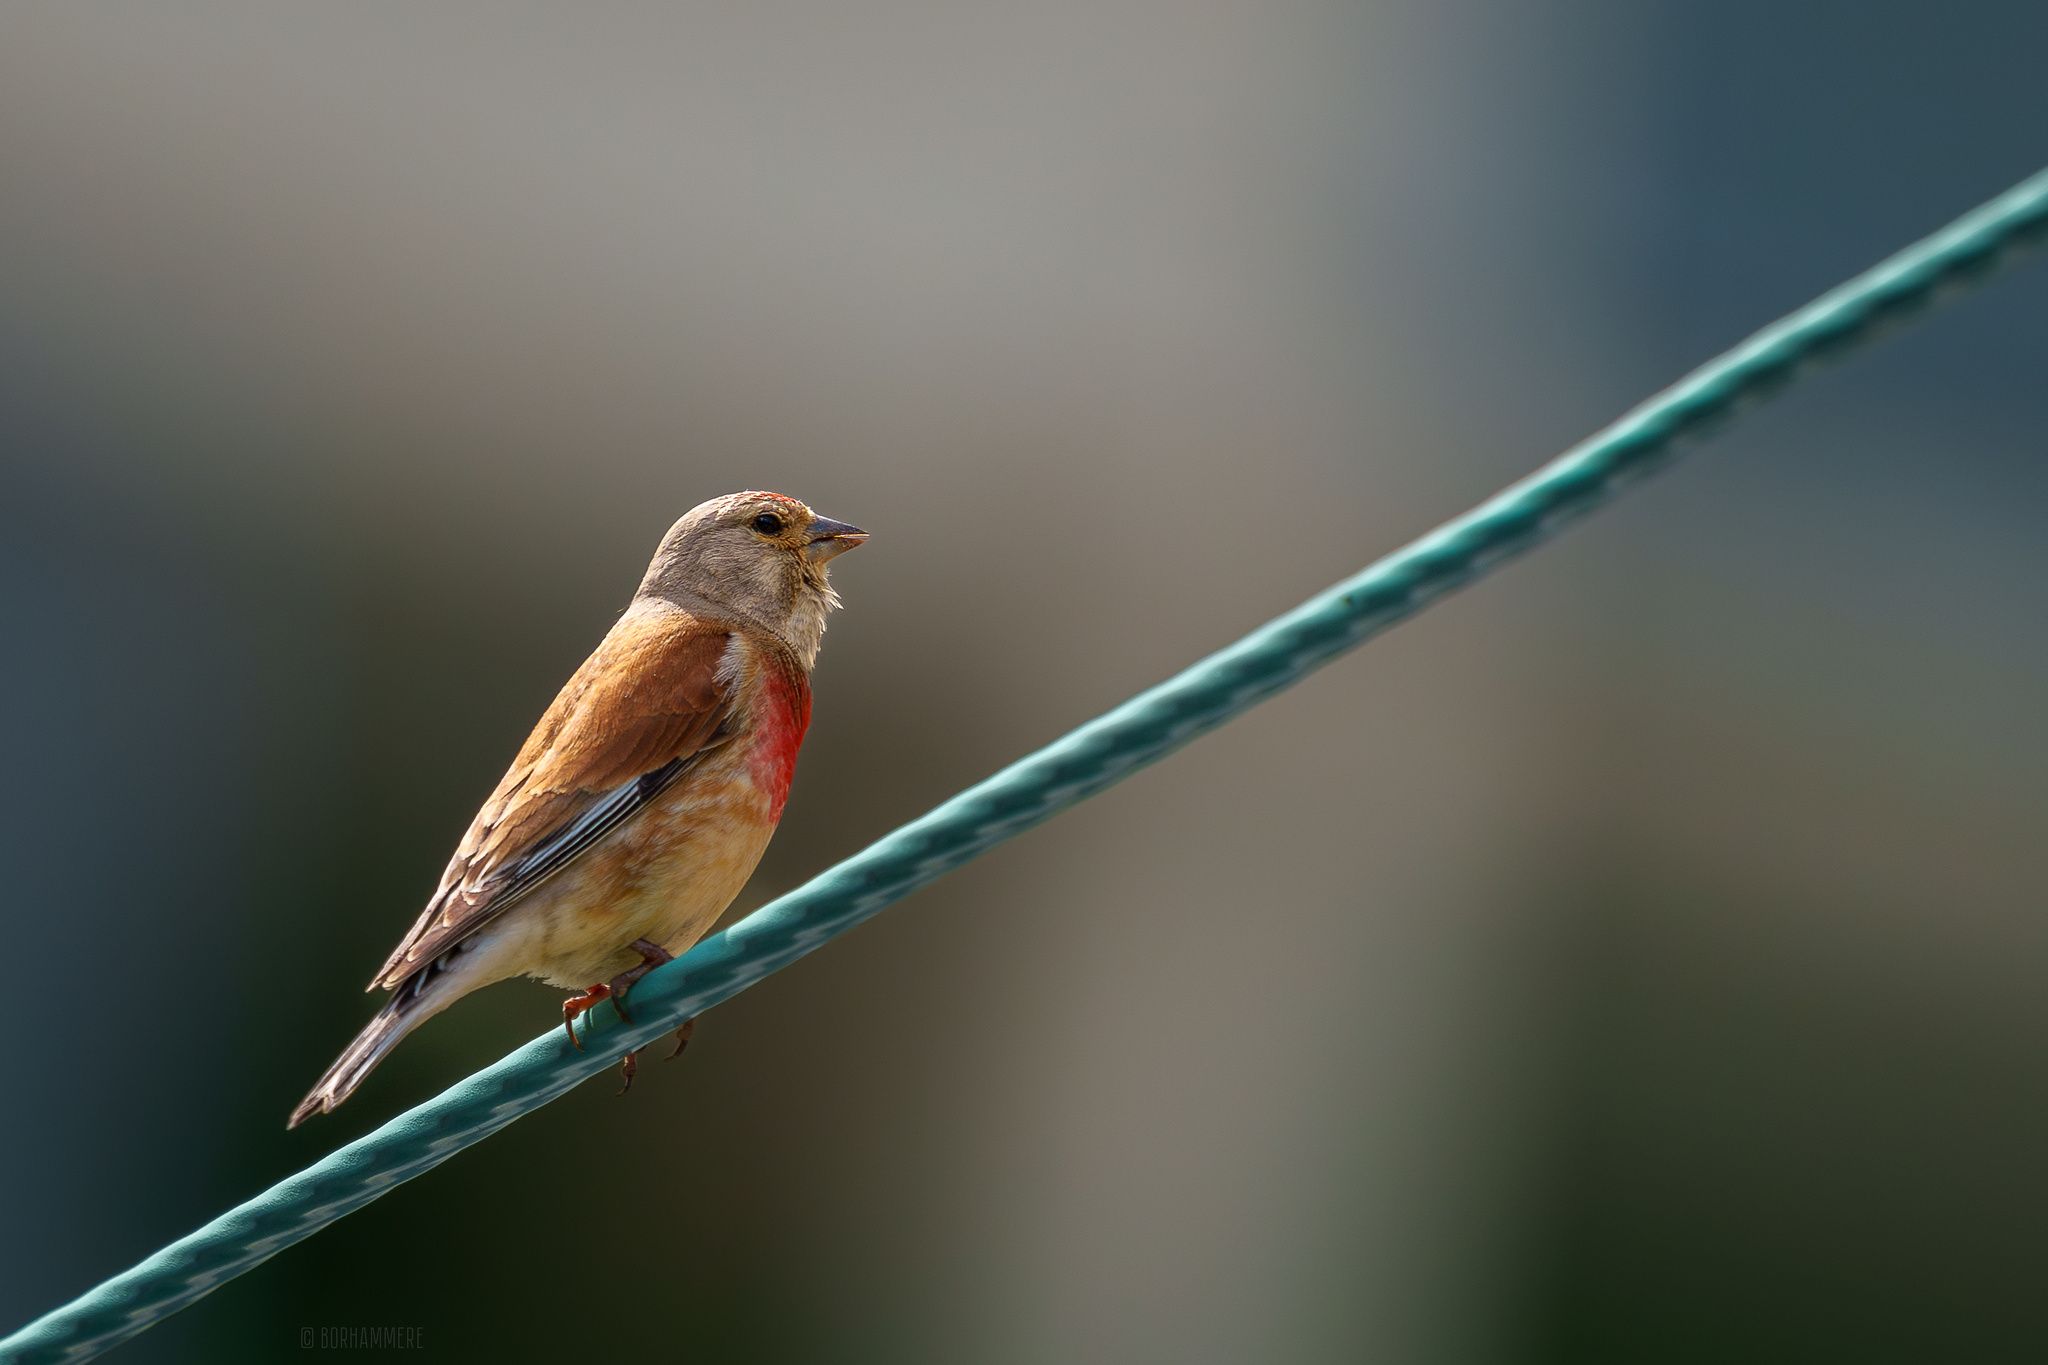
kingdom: Animalia
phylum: Chordata
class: Aves
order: Passeriformes
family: Fringillidae
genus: Linaria
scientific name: Linaria cannabina
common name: Common linnet
